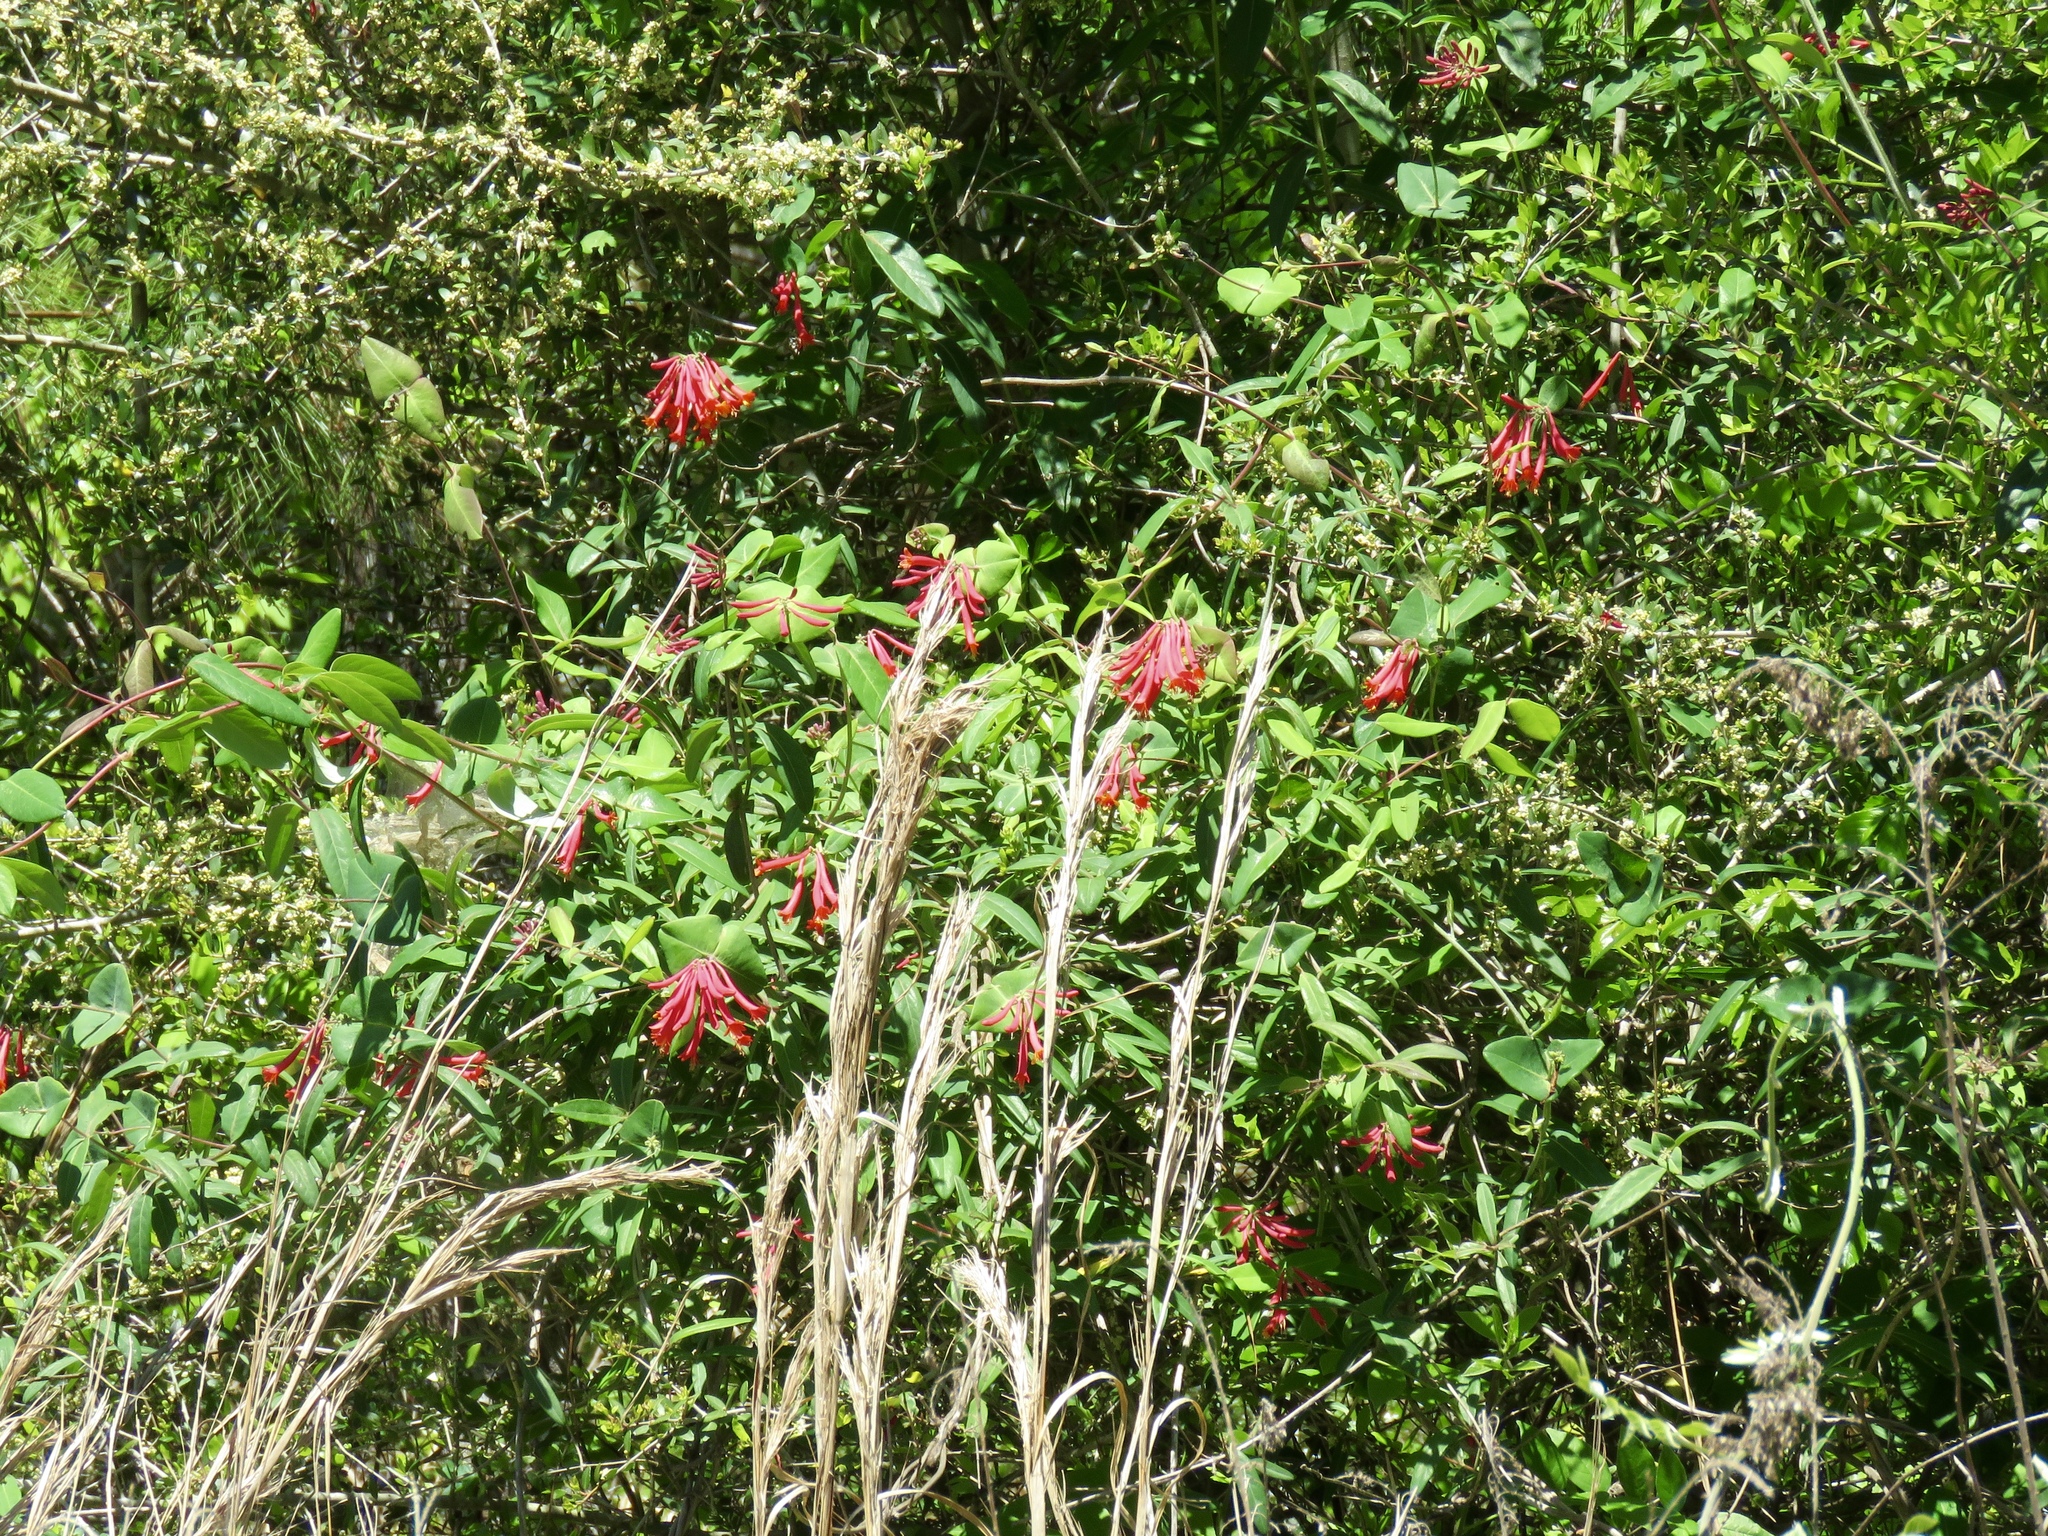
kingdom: Plantae
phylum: Tracheophyta
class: Magnoliopsida
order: Dipsacales
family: Caprifoliaceae
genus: Lonicera
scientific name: Lonicera sempervirens
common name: Coral honeysuckle
